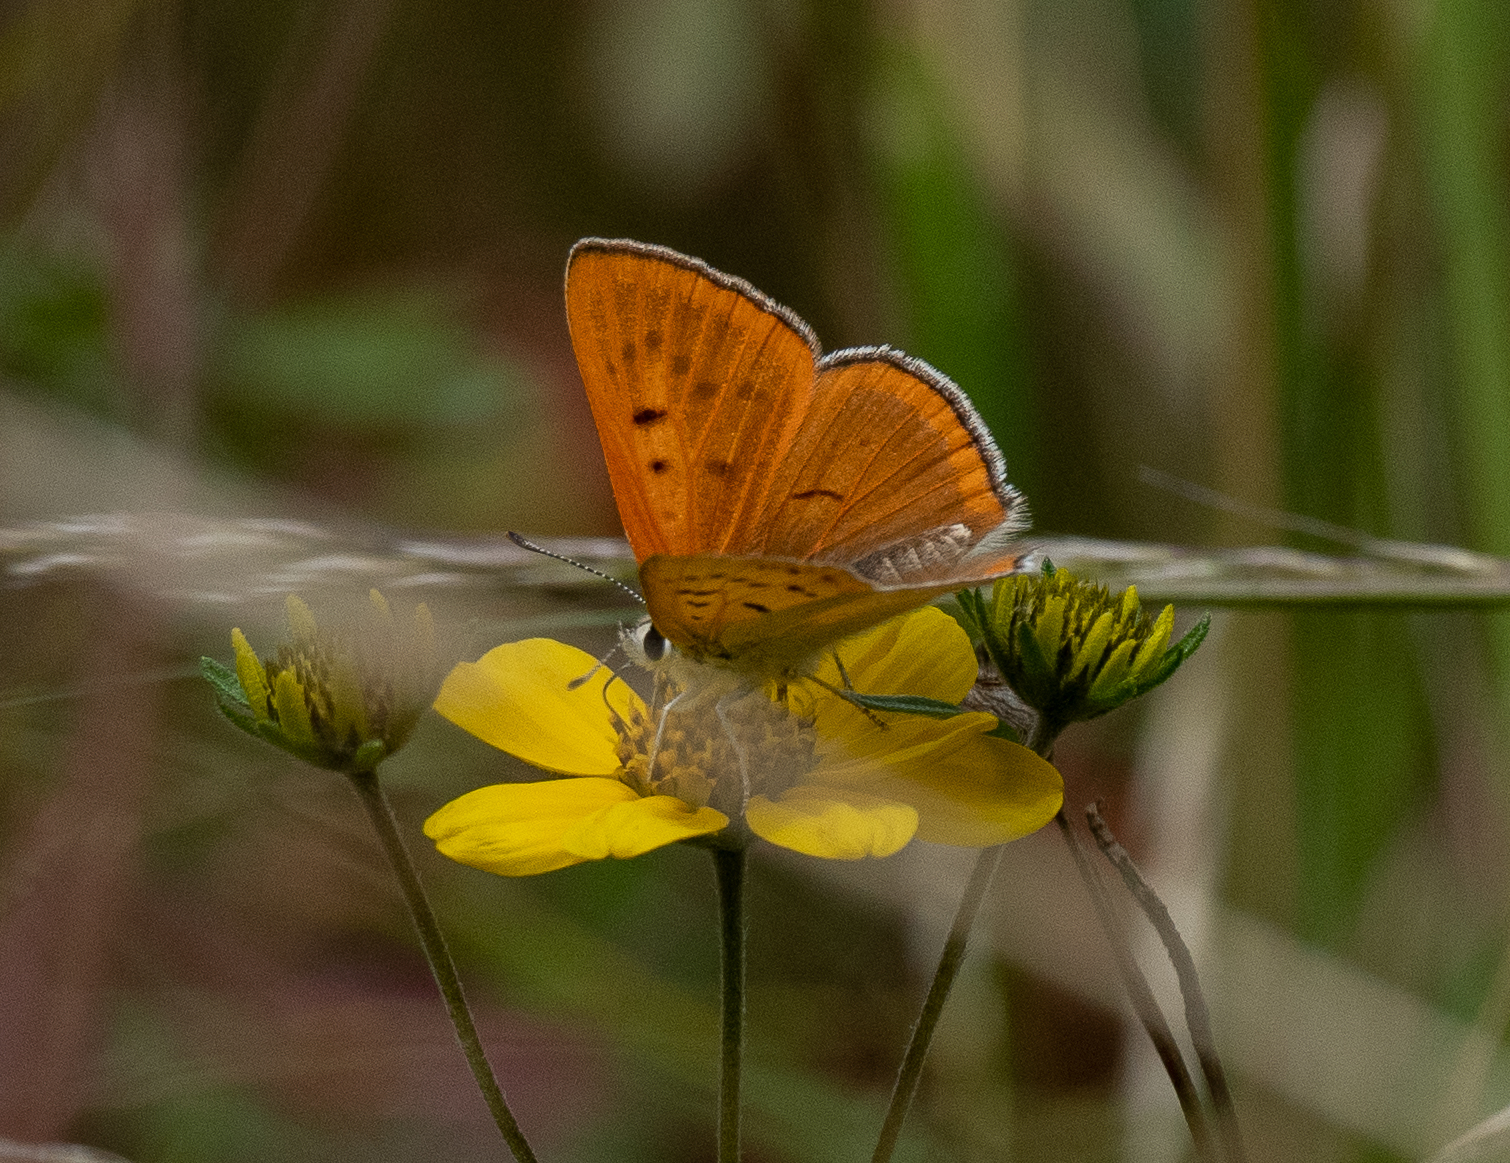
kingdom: Animalia
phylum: Arthropoda
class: Insecta
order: Lepidoptera
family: Lycaenidae
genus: Tharsalea
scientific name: Tharsalea rubidus
